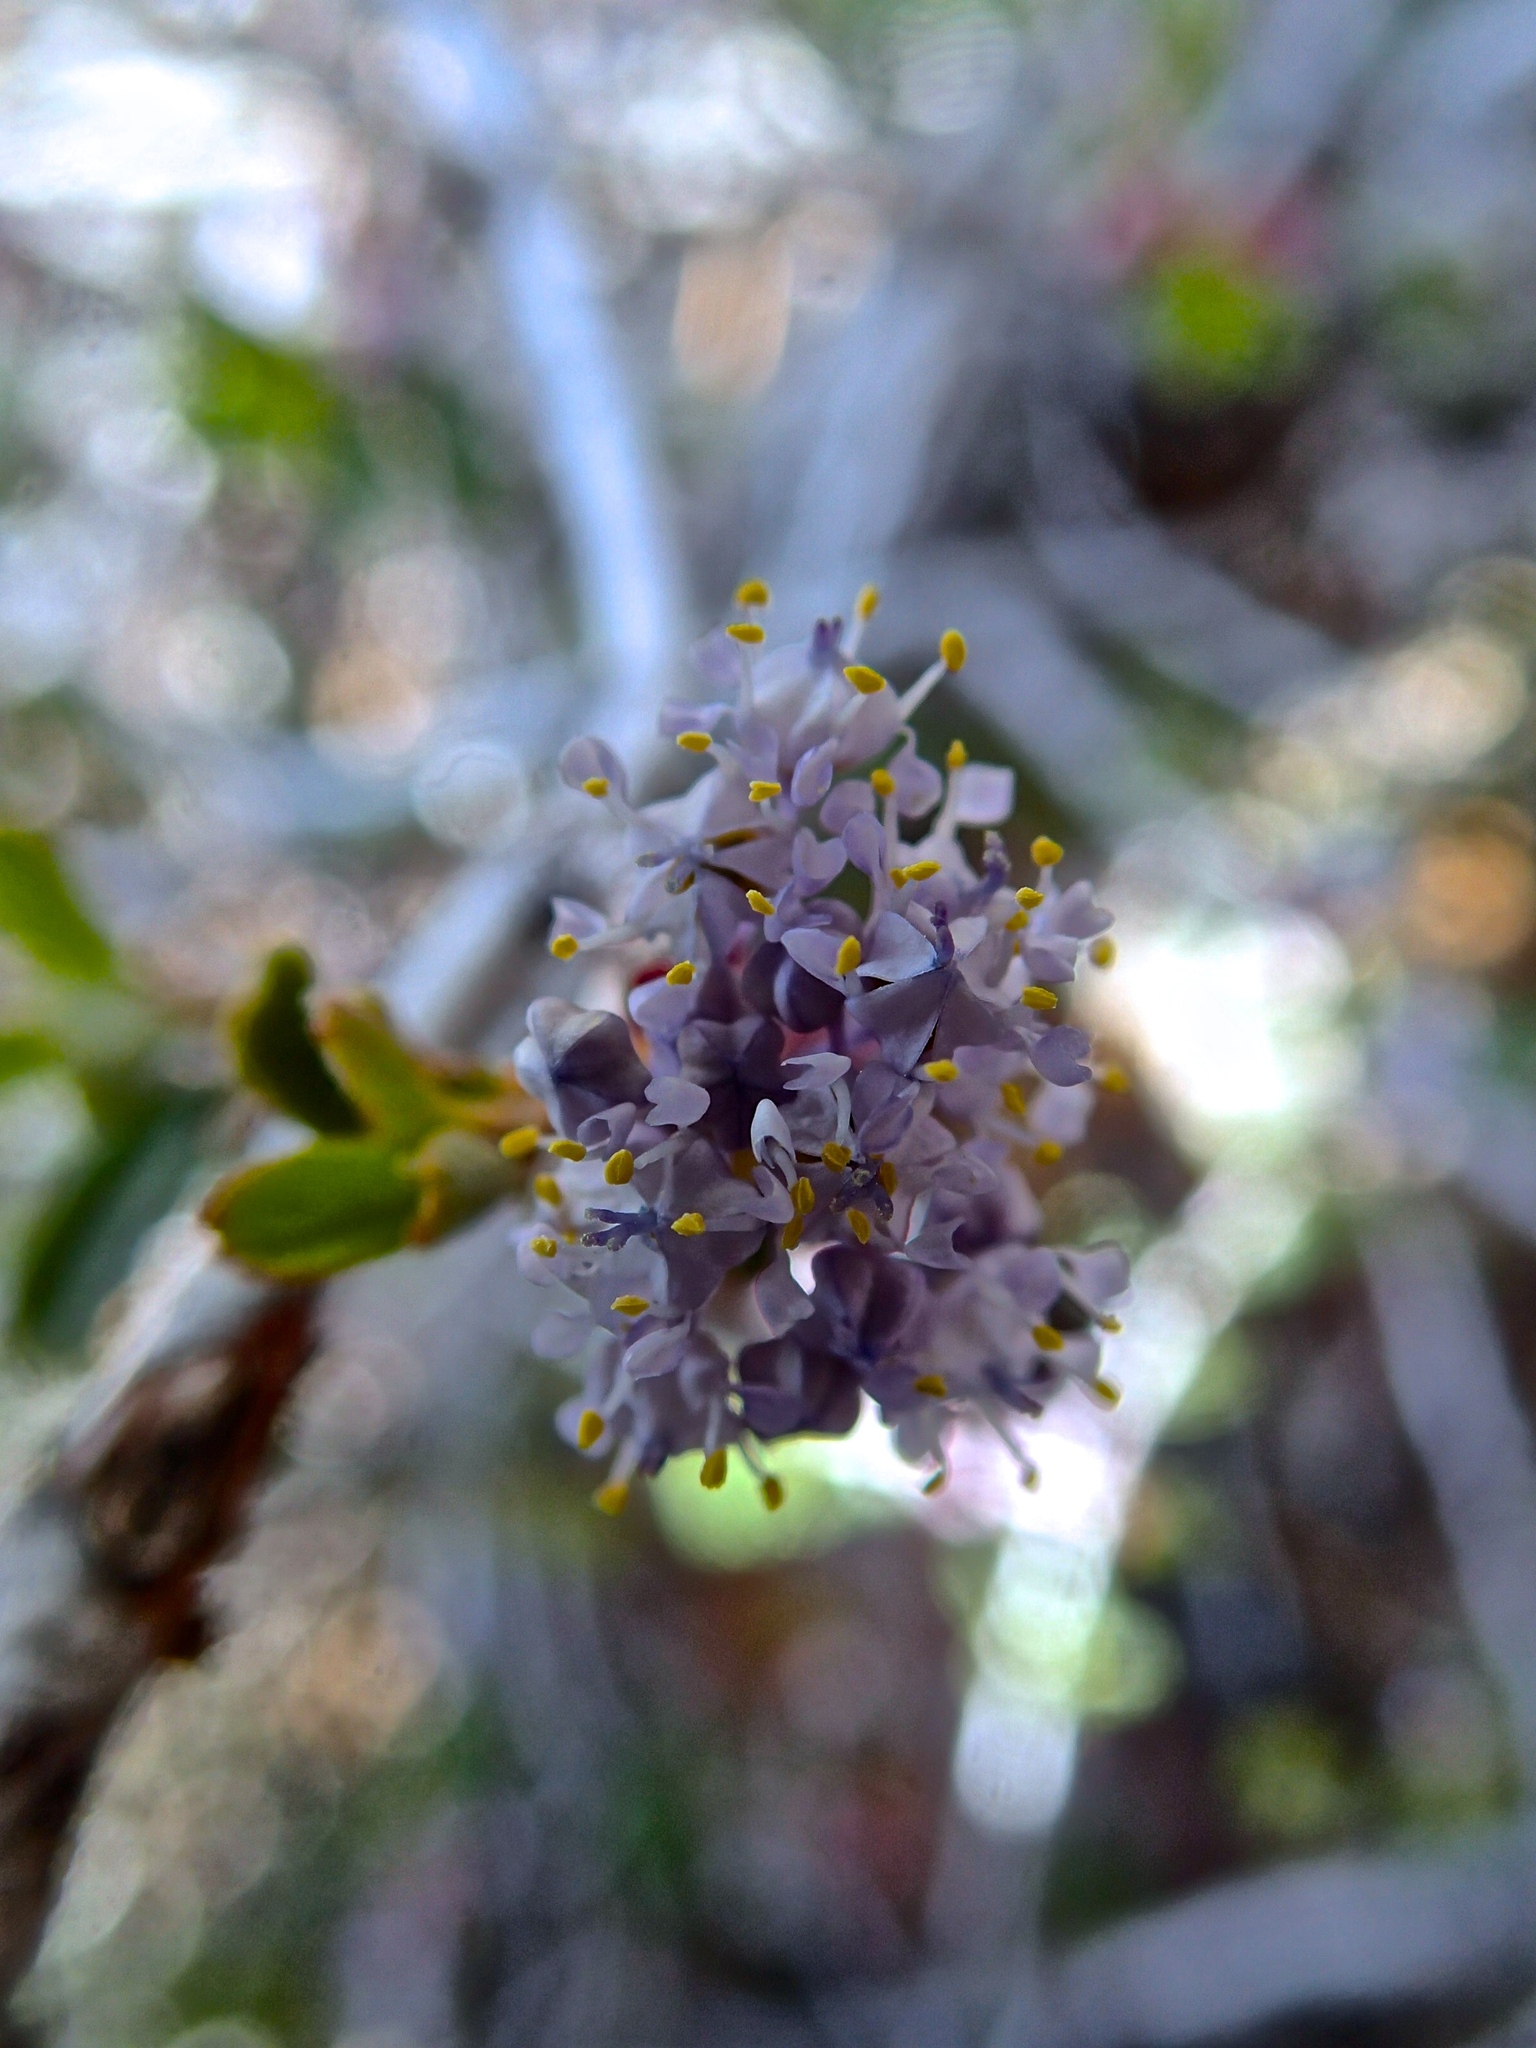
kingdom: Plantae
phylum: Tracheophyta
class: Magnoliopsida
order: Rosales
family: Rhamnaceae
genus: Ceanothus
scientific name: Ceanothus fresnensis
